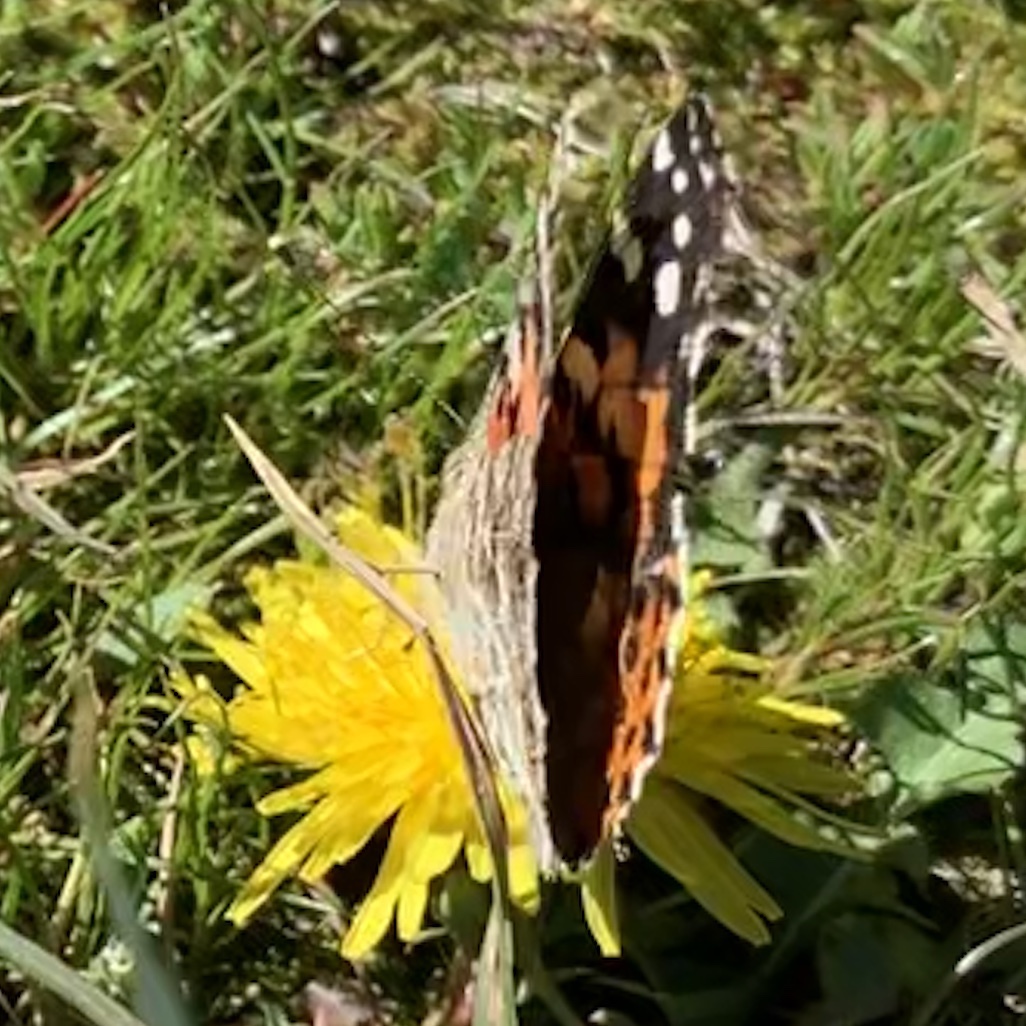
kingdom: Animalia
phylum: Arthropoda
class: Insecta
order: Lepidoptera
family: Nymphalidae
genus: Vanessa
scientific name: Vanessa cardui
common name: Painted lady
